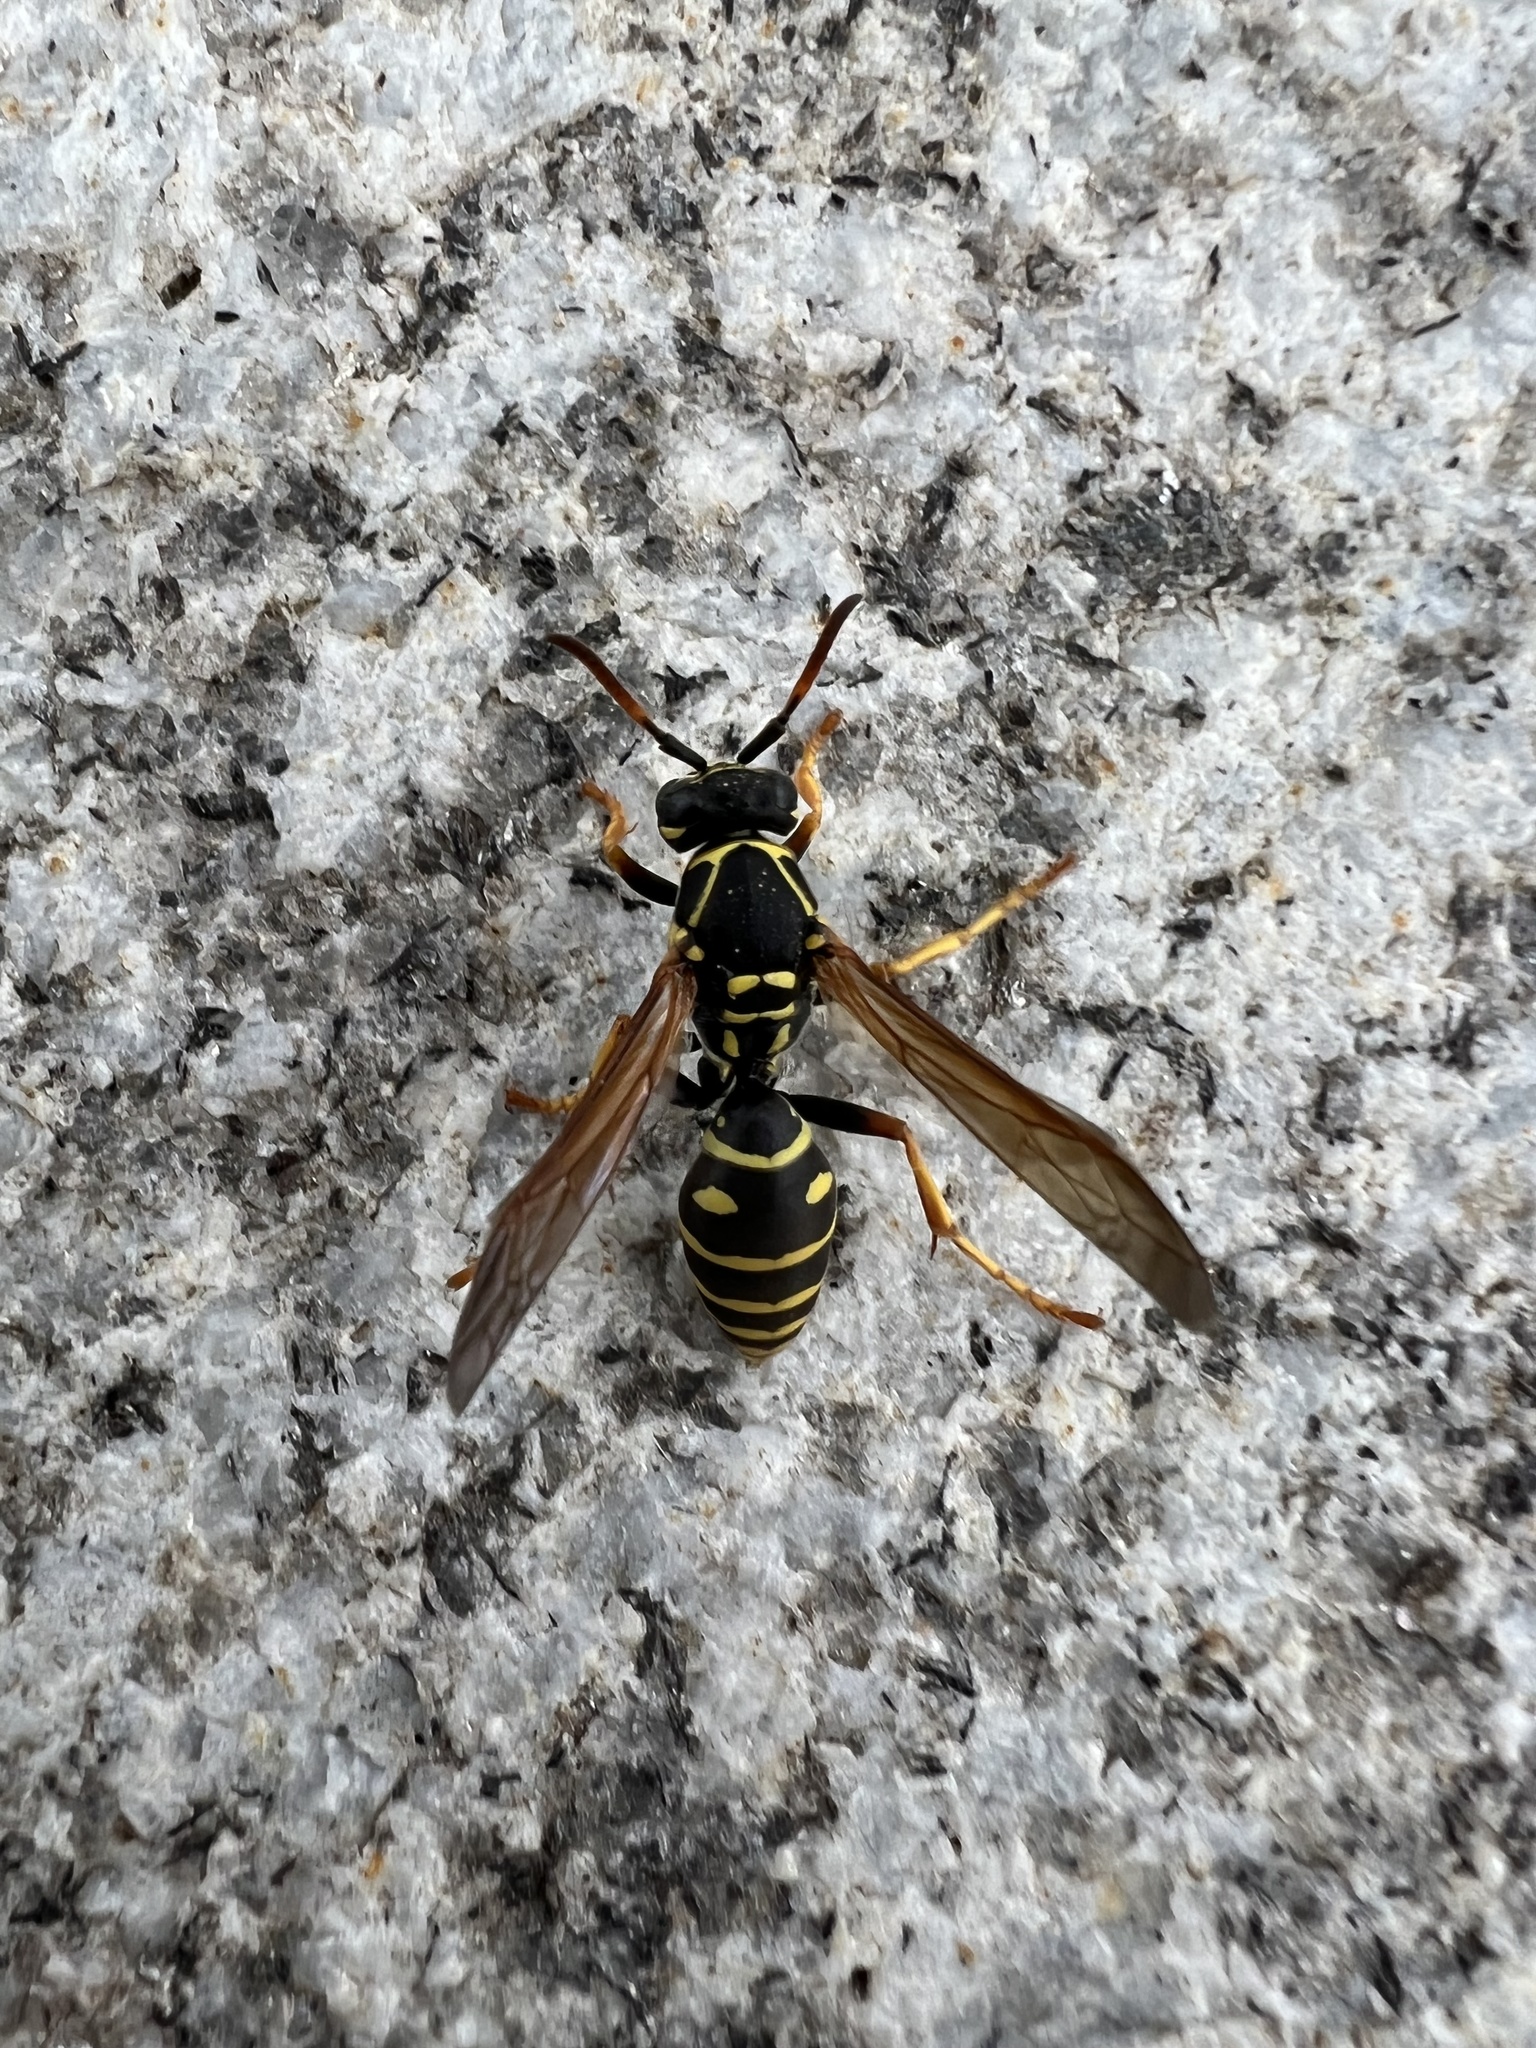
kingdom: Animalia
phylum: Arthropoda
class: Insecta
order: Hymenoptera
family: Eumenidae
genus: Polistes
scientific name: Polistes nimpha
